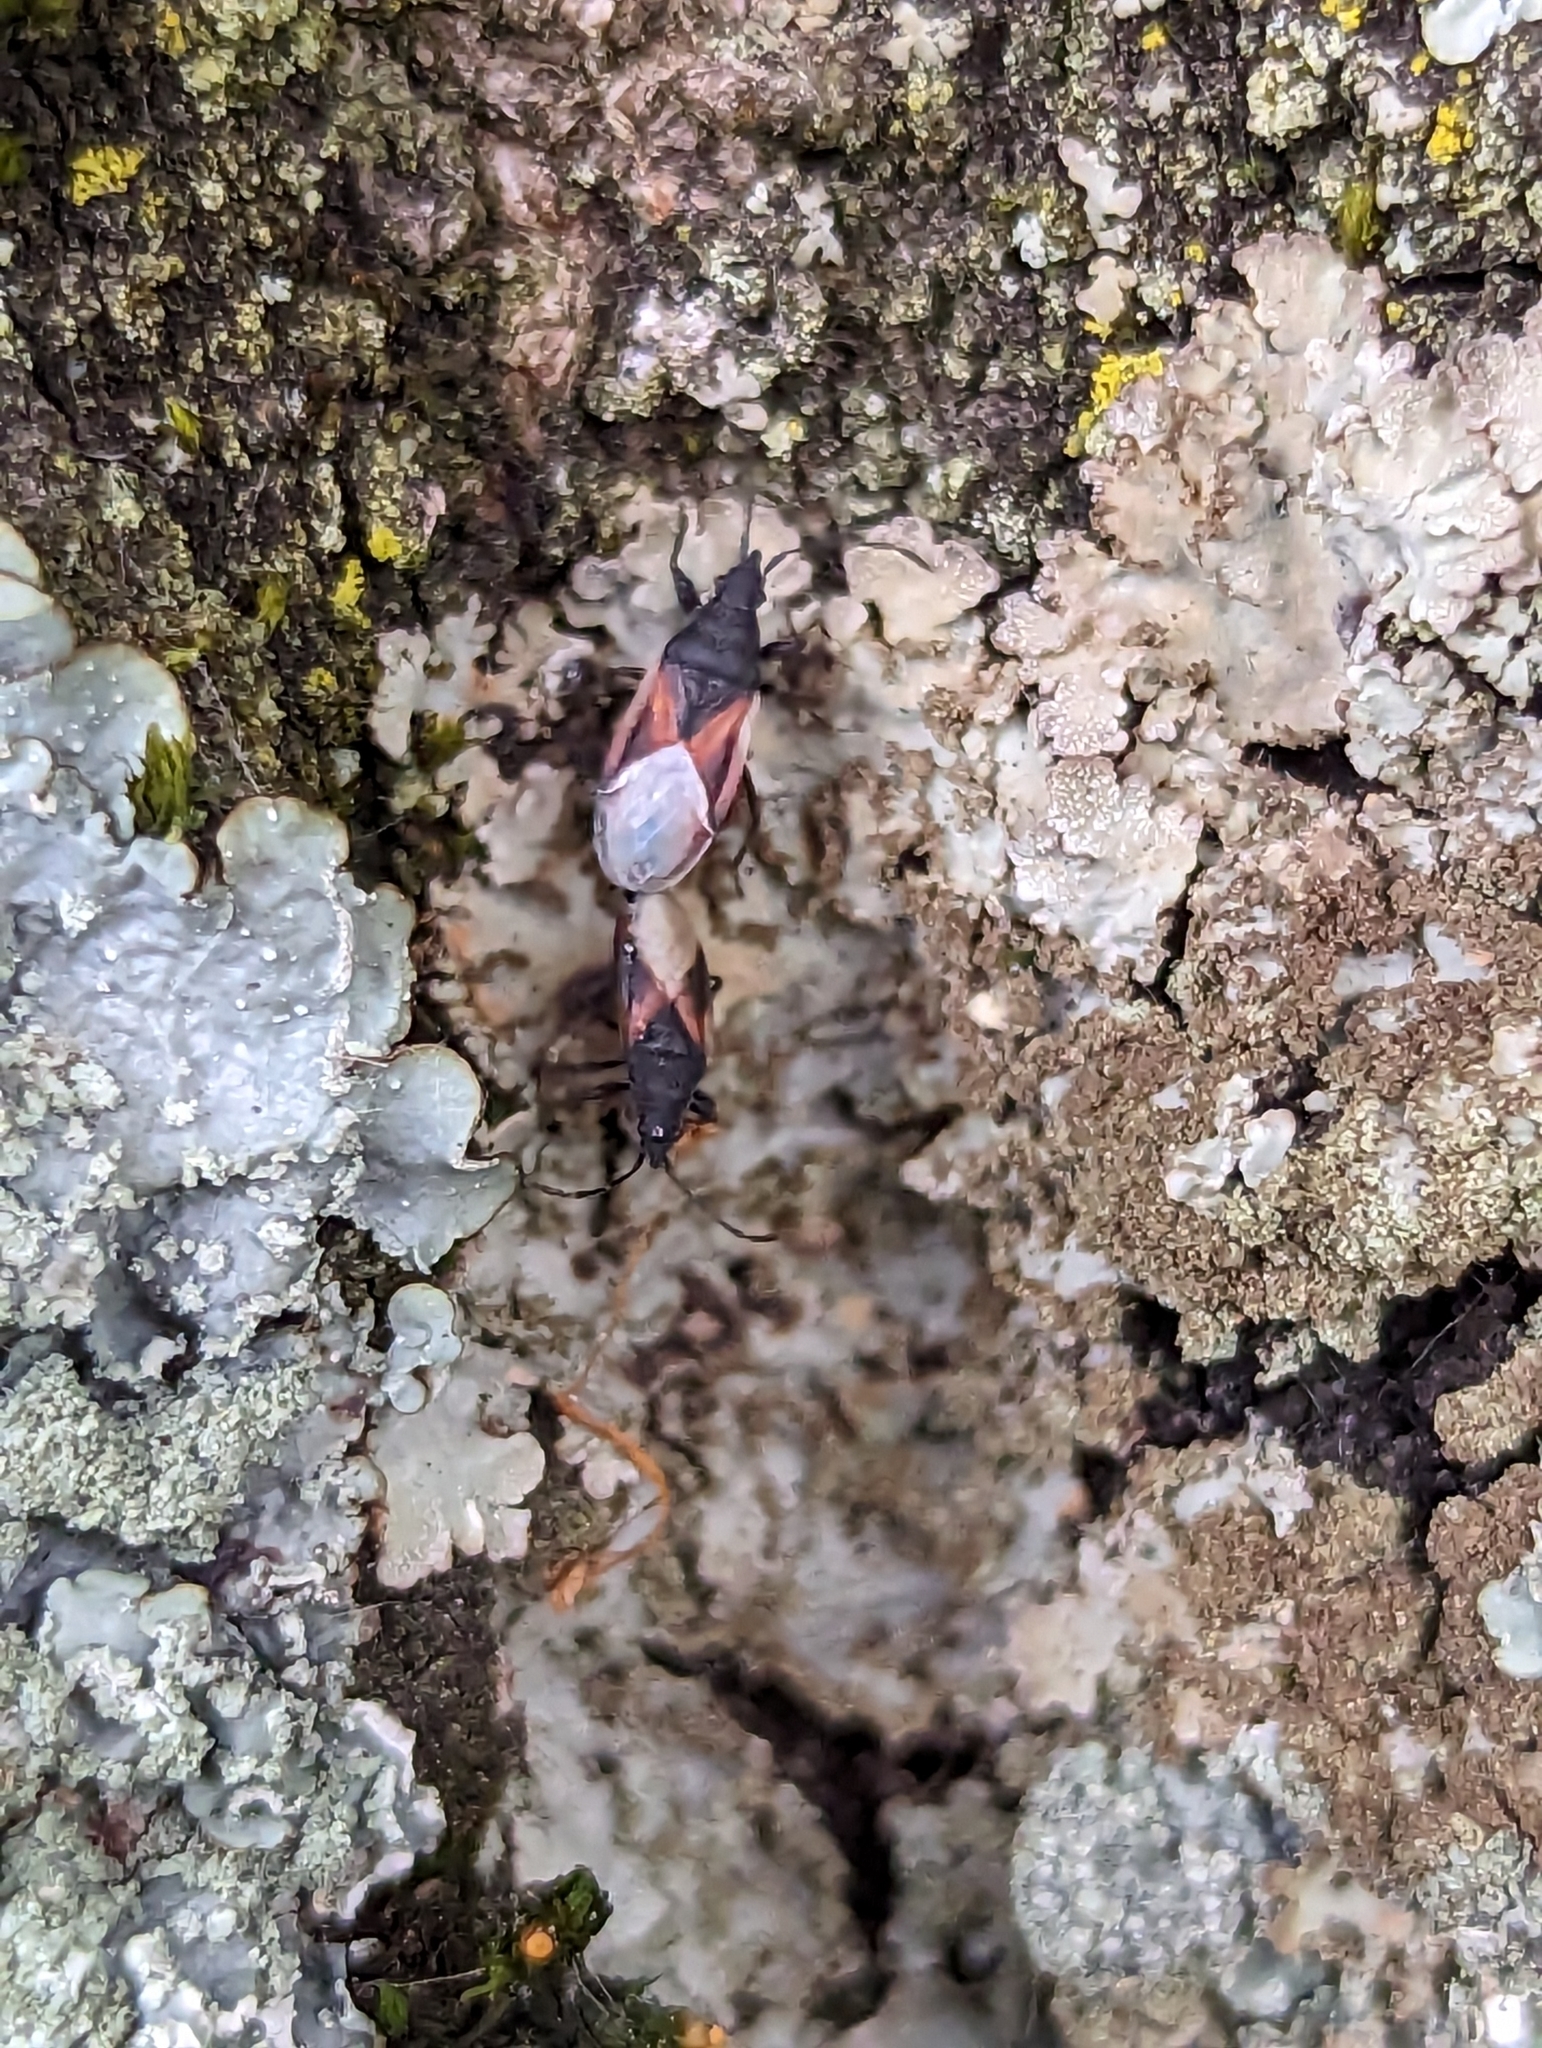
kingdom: Animalia
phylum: Arthropoda
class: Insecta
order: Hemiptera
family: Oxycarenidae
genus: Oxycarenus
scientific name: Oxycarenus lavaterae
